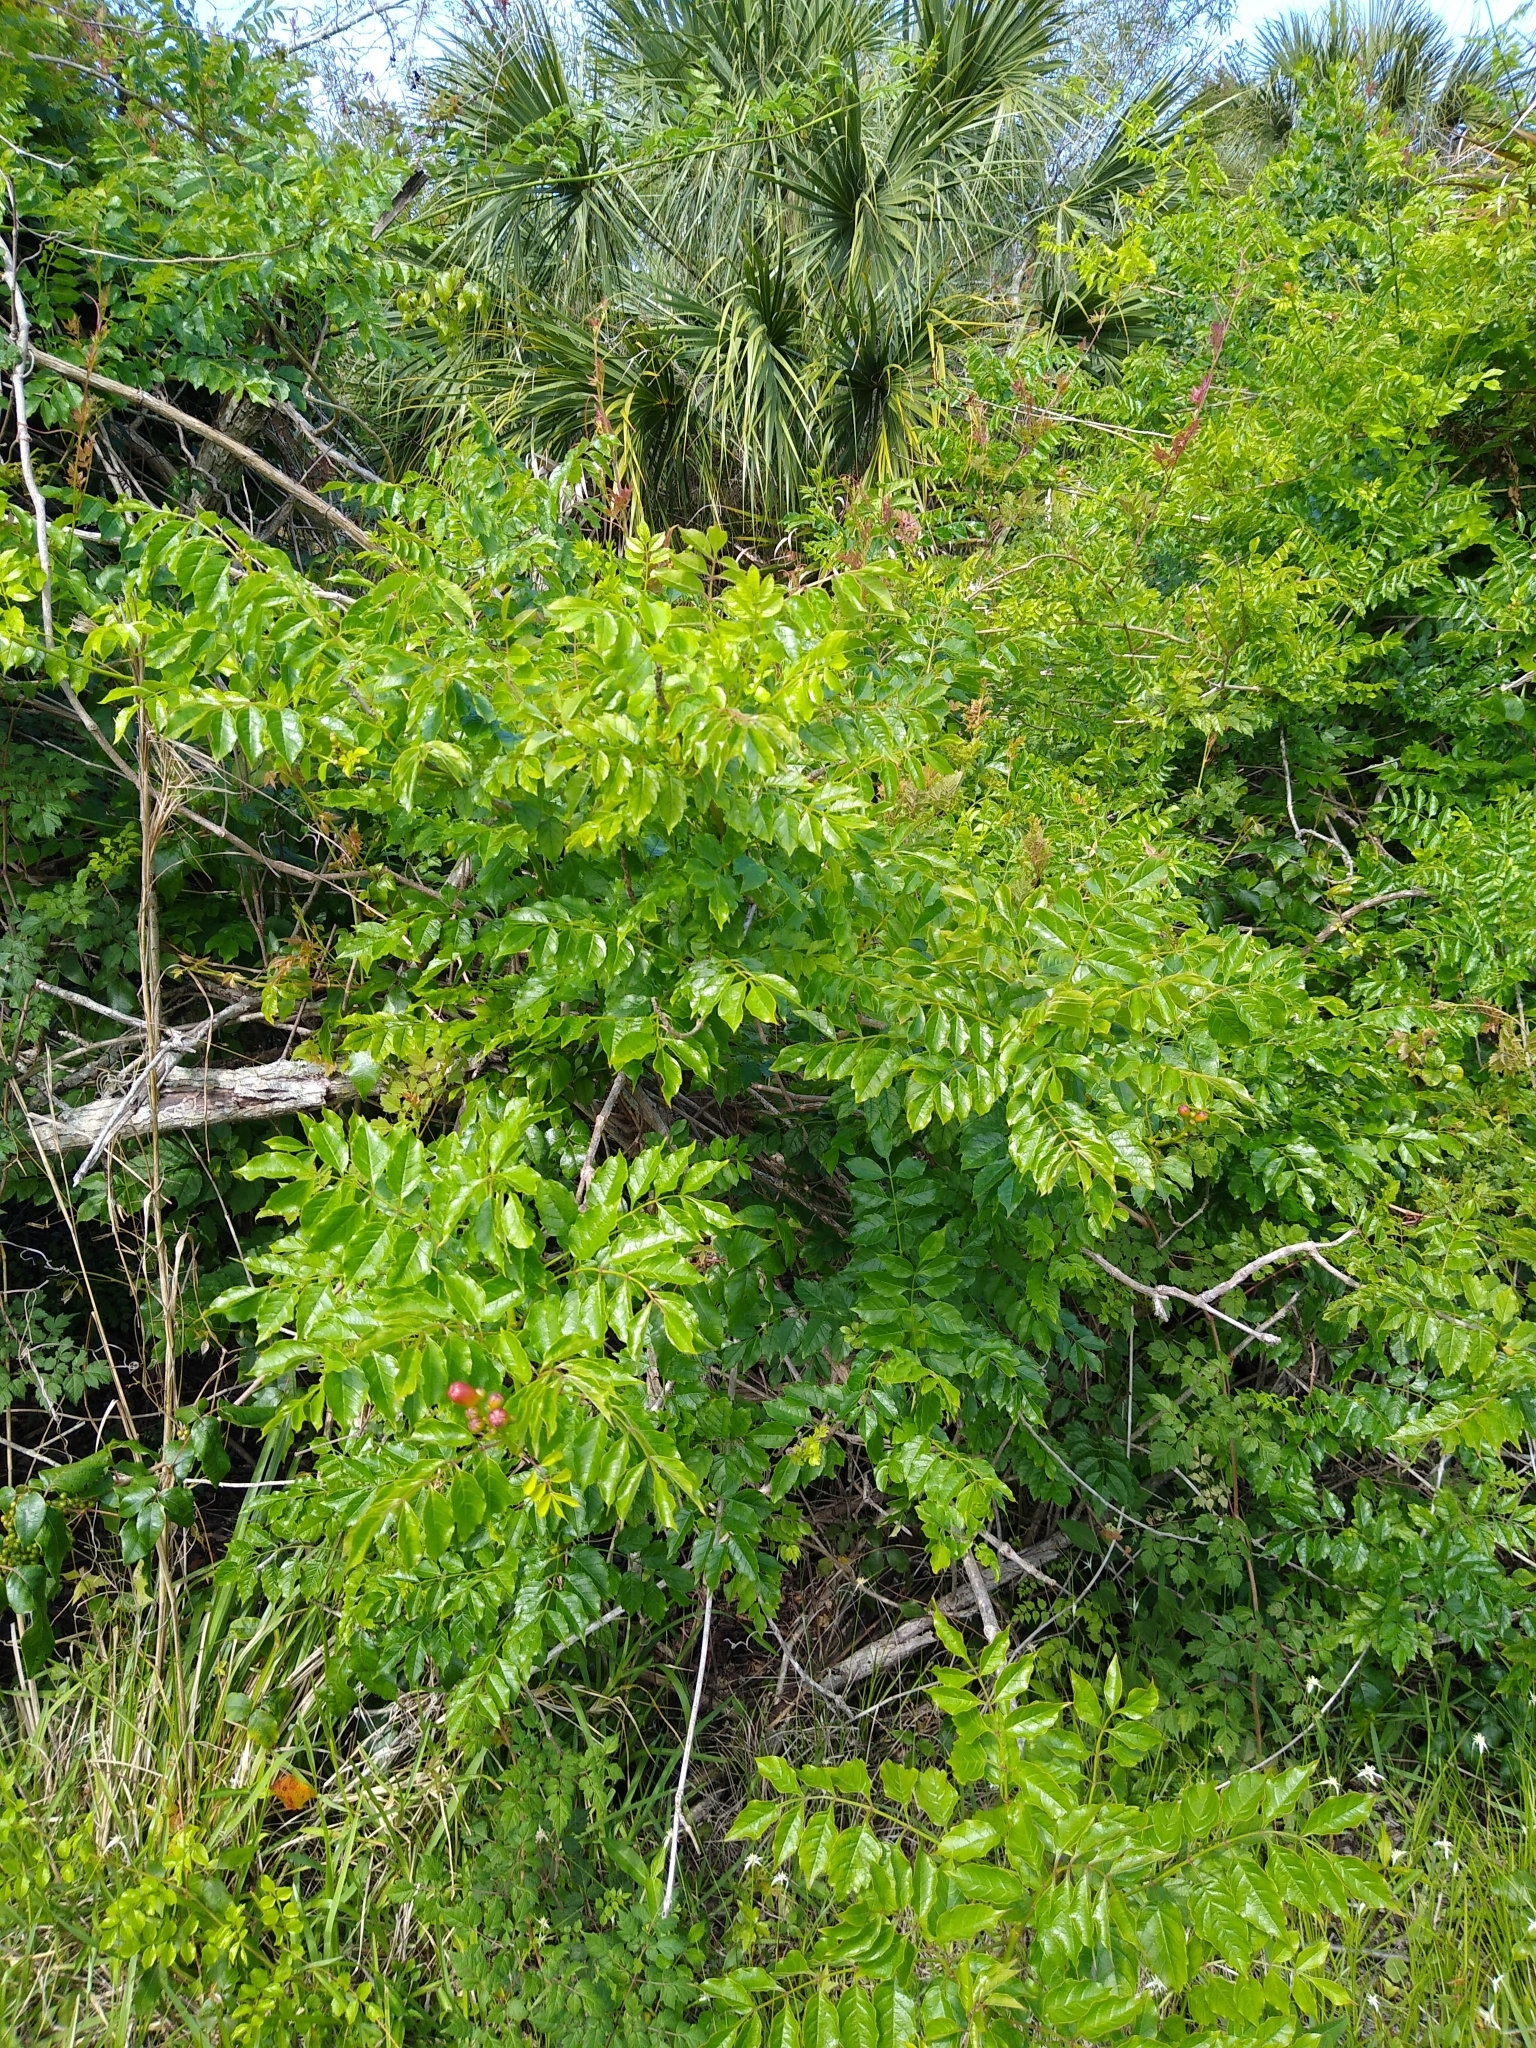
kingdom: Plantae
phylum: Tracheophyta
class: Magnoliopsida
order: Lamiales
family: Bignoniaceae
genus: Campsis
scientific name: Campsis radicans
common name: Trumpet-creeper
